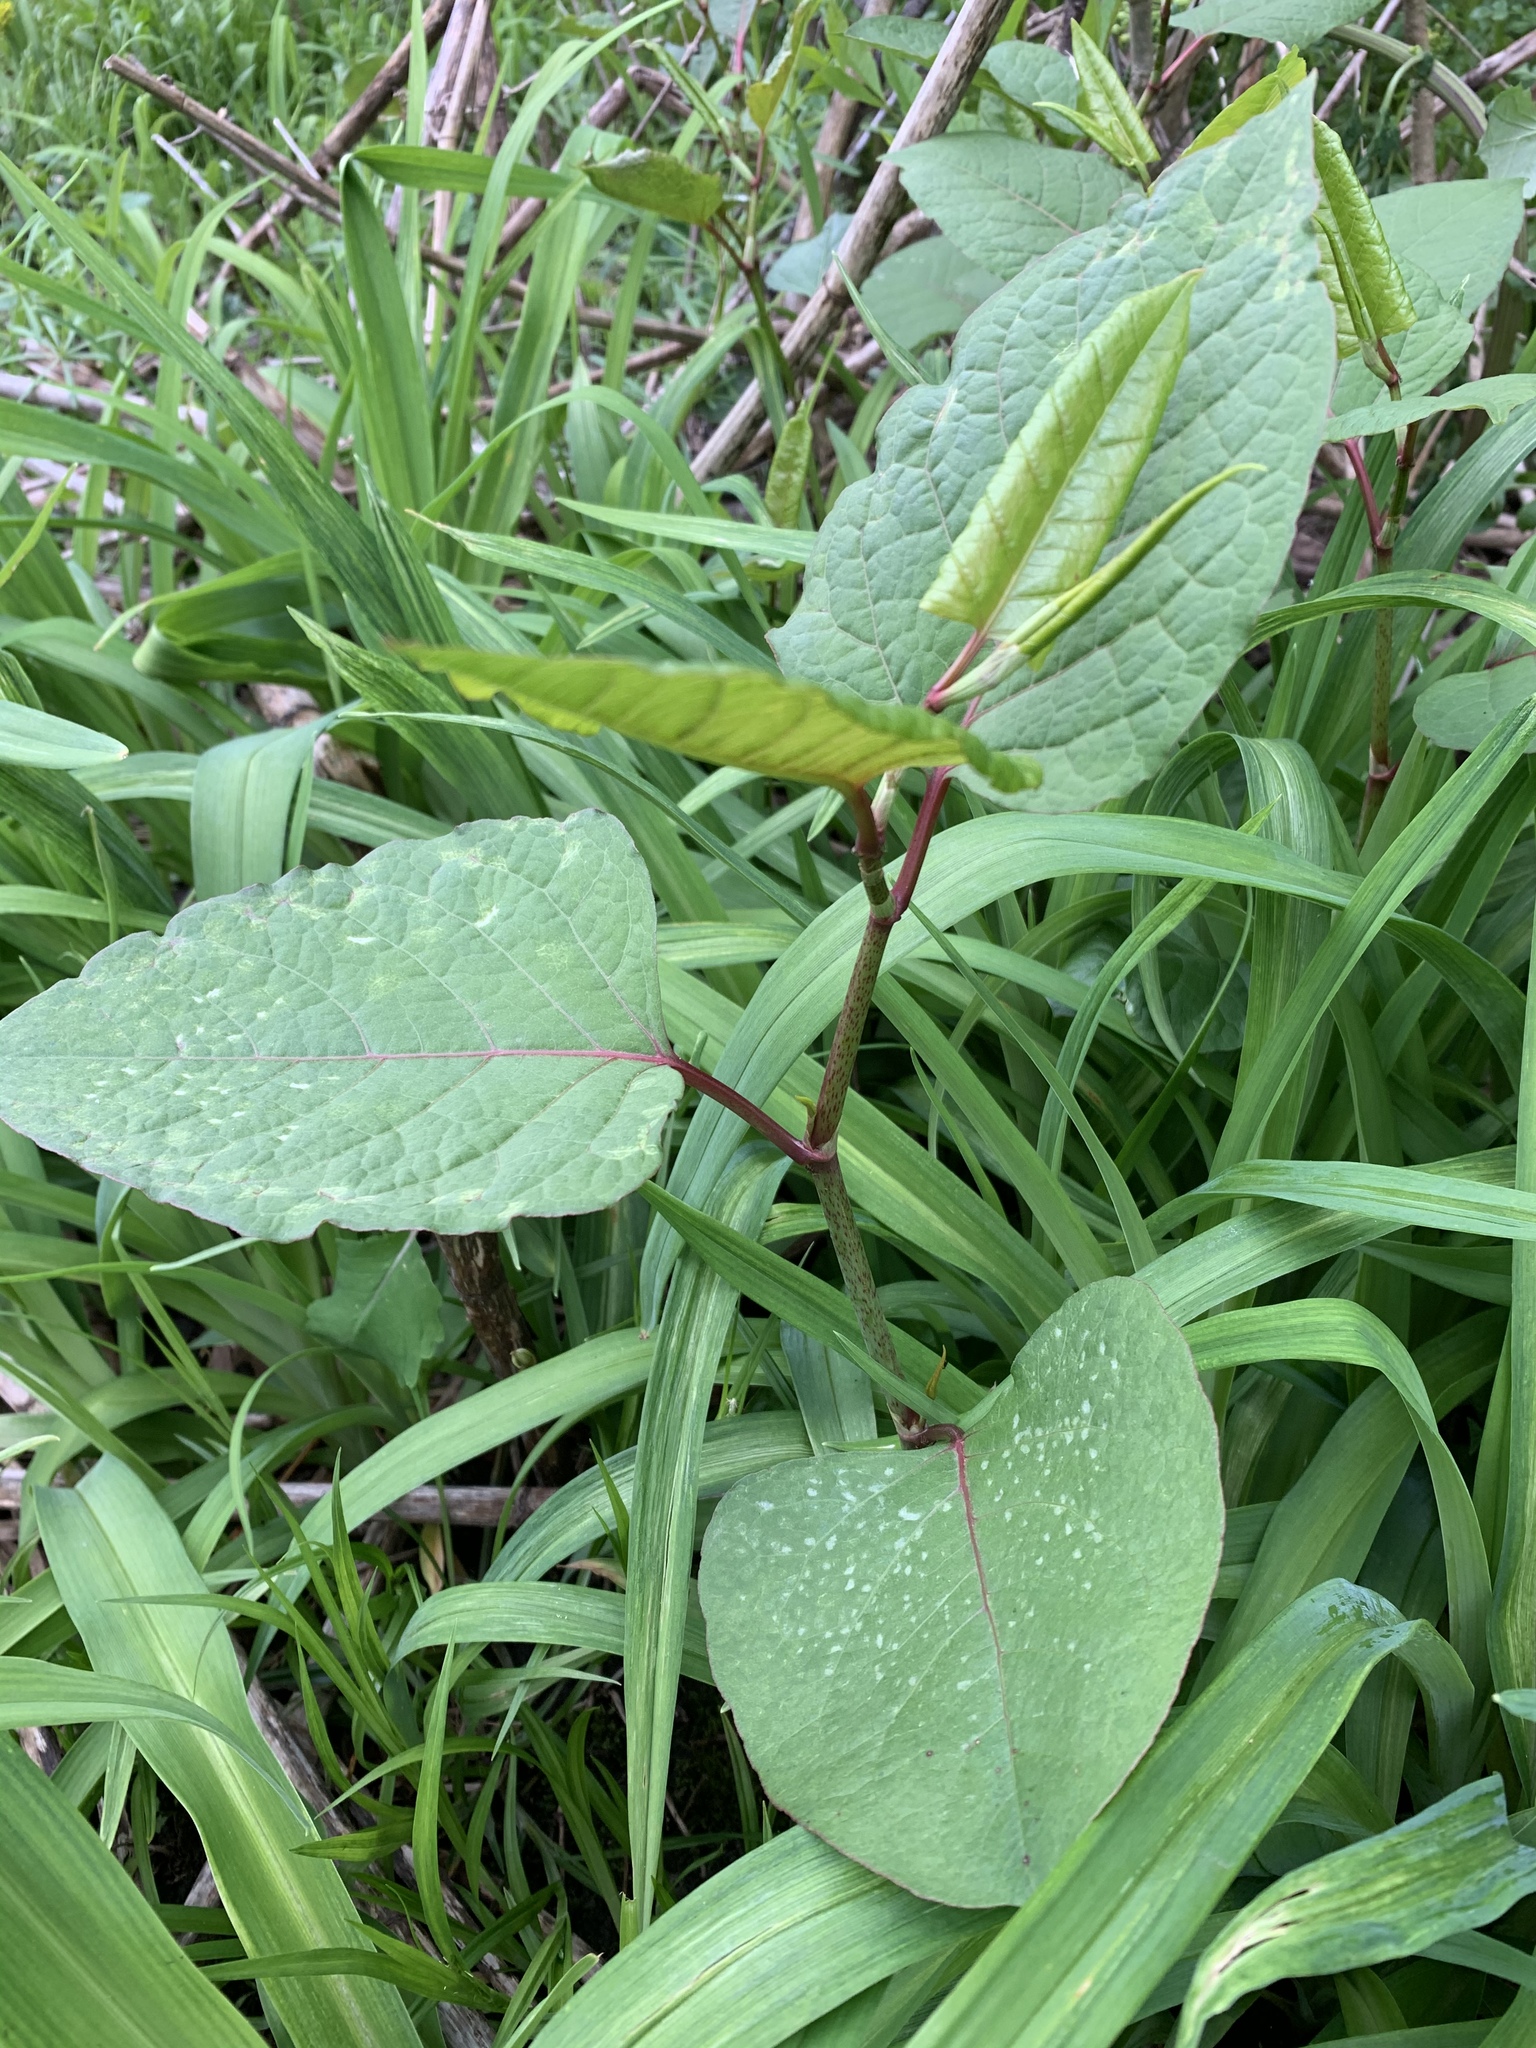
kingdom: Plantae
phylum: Tracheophyta
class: Magnoliopsida
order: Caryophyllales
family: Polygonaceae
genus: Reynoutria
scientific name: Reynoutria japonica
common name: Japanese knotweed
